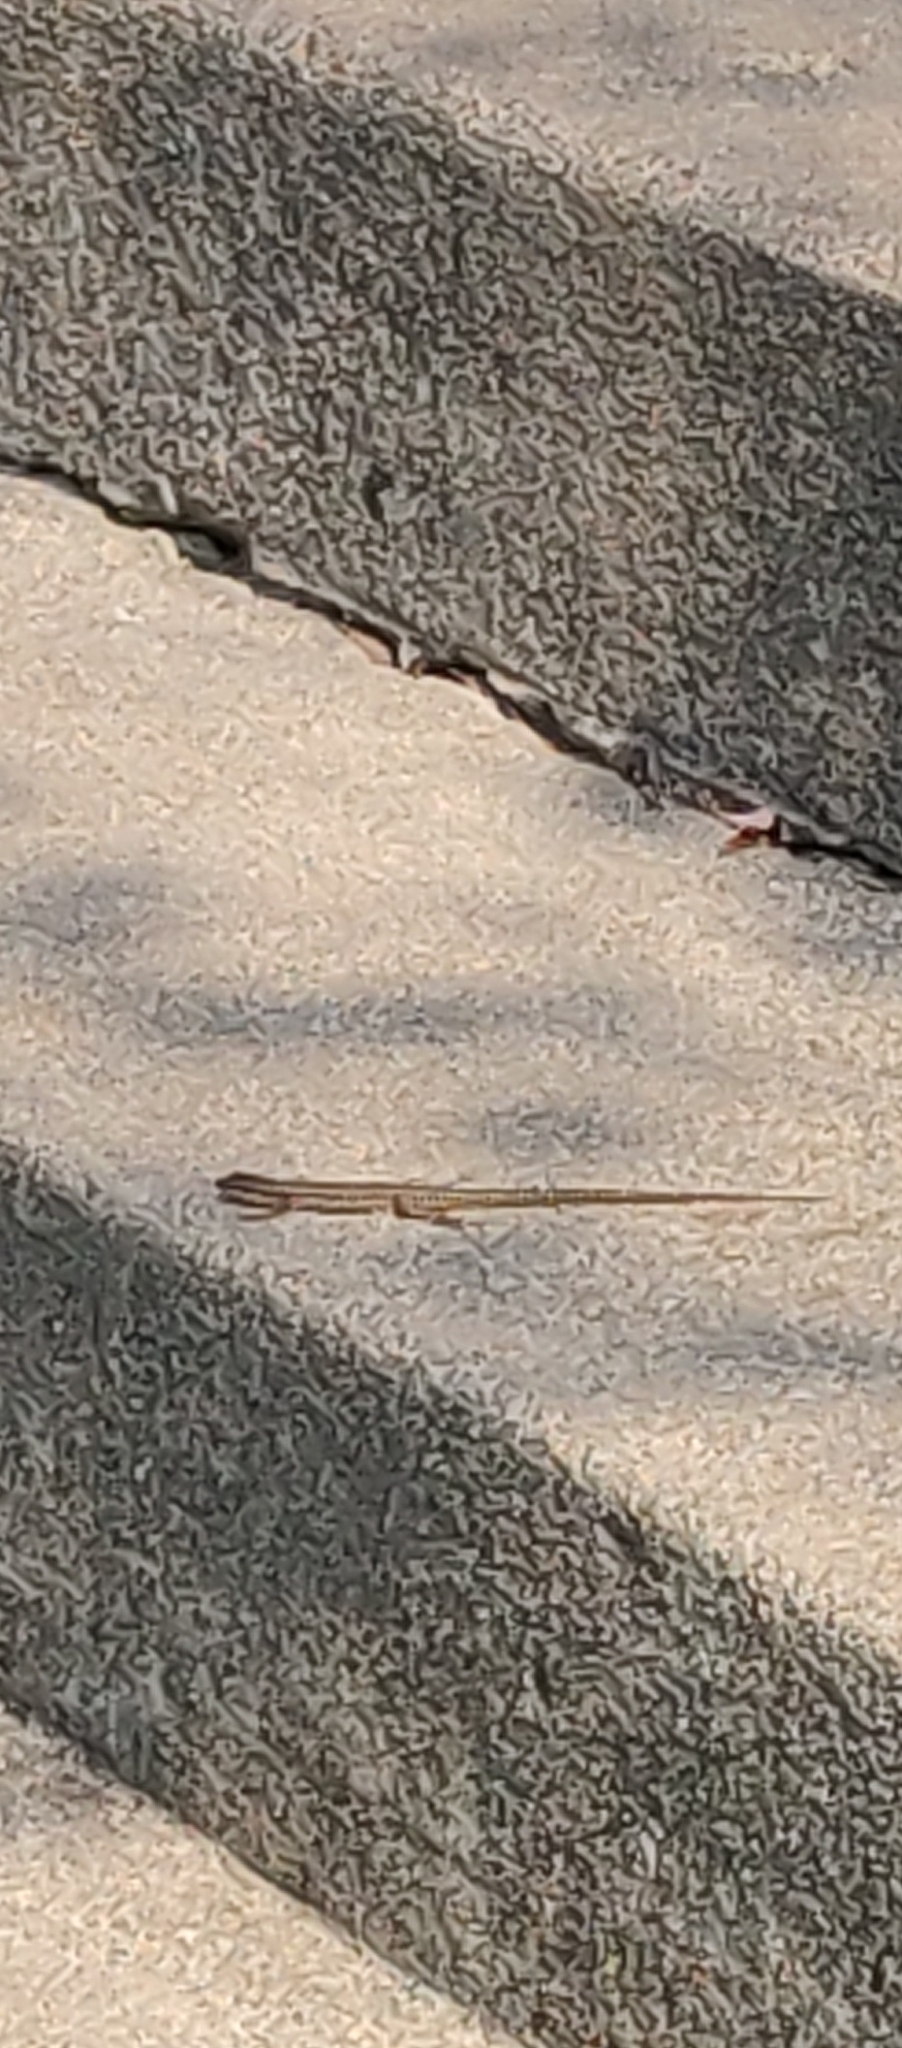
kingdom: Animalia
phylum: Chordata
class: Squamata
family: Lacertidae
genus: Podarcis
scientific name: Podarcis muralis
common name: Common wall lizard
